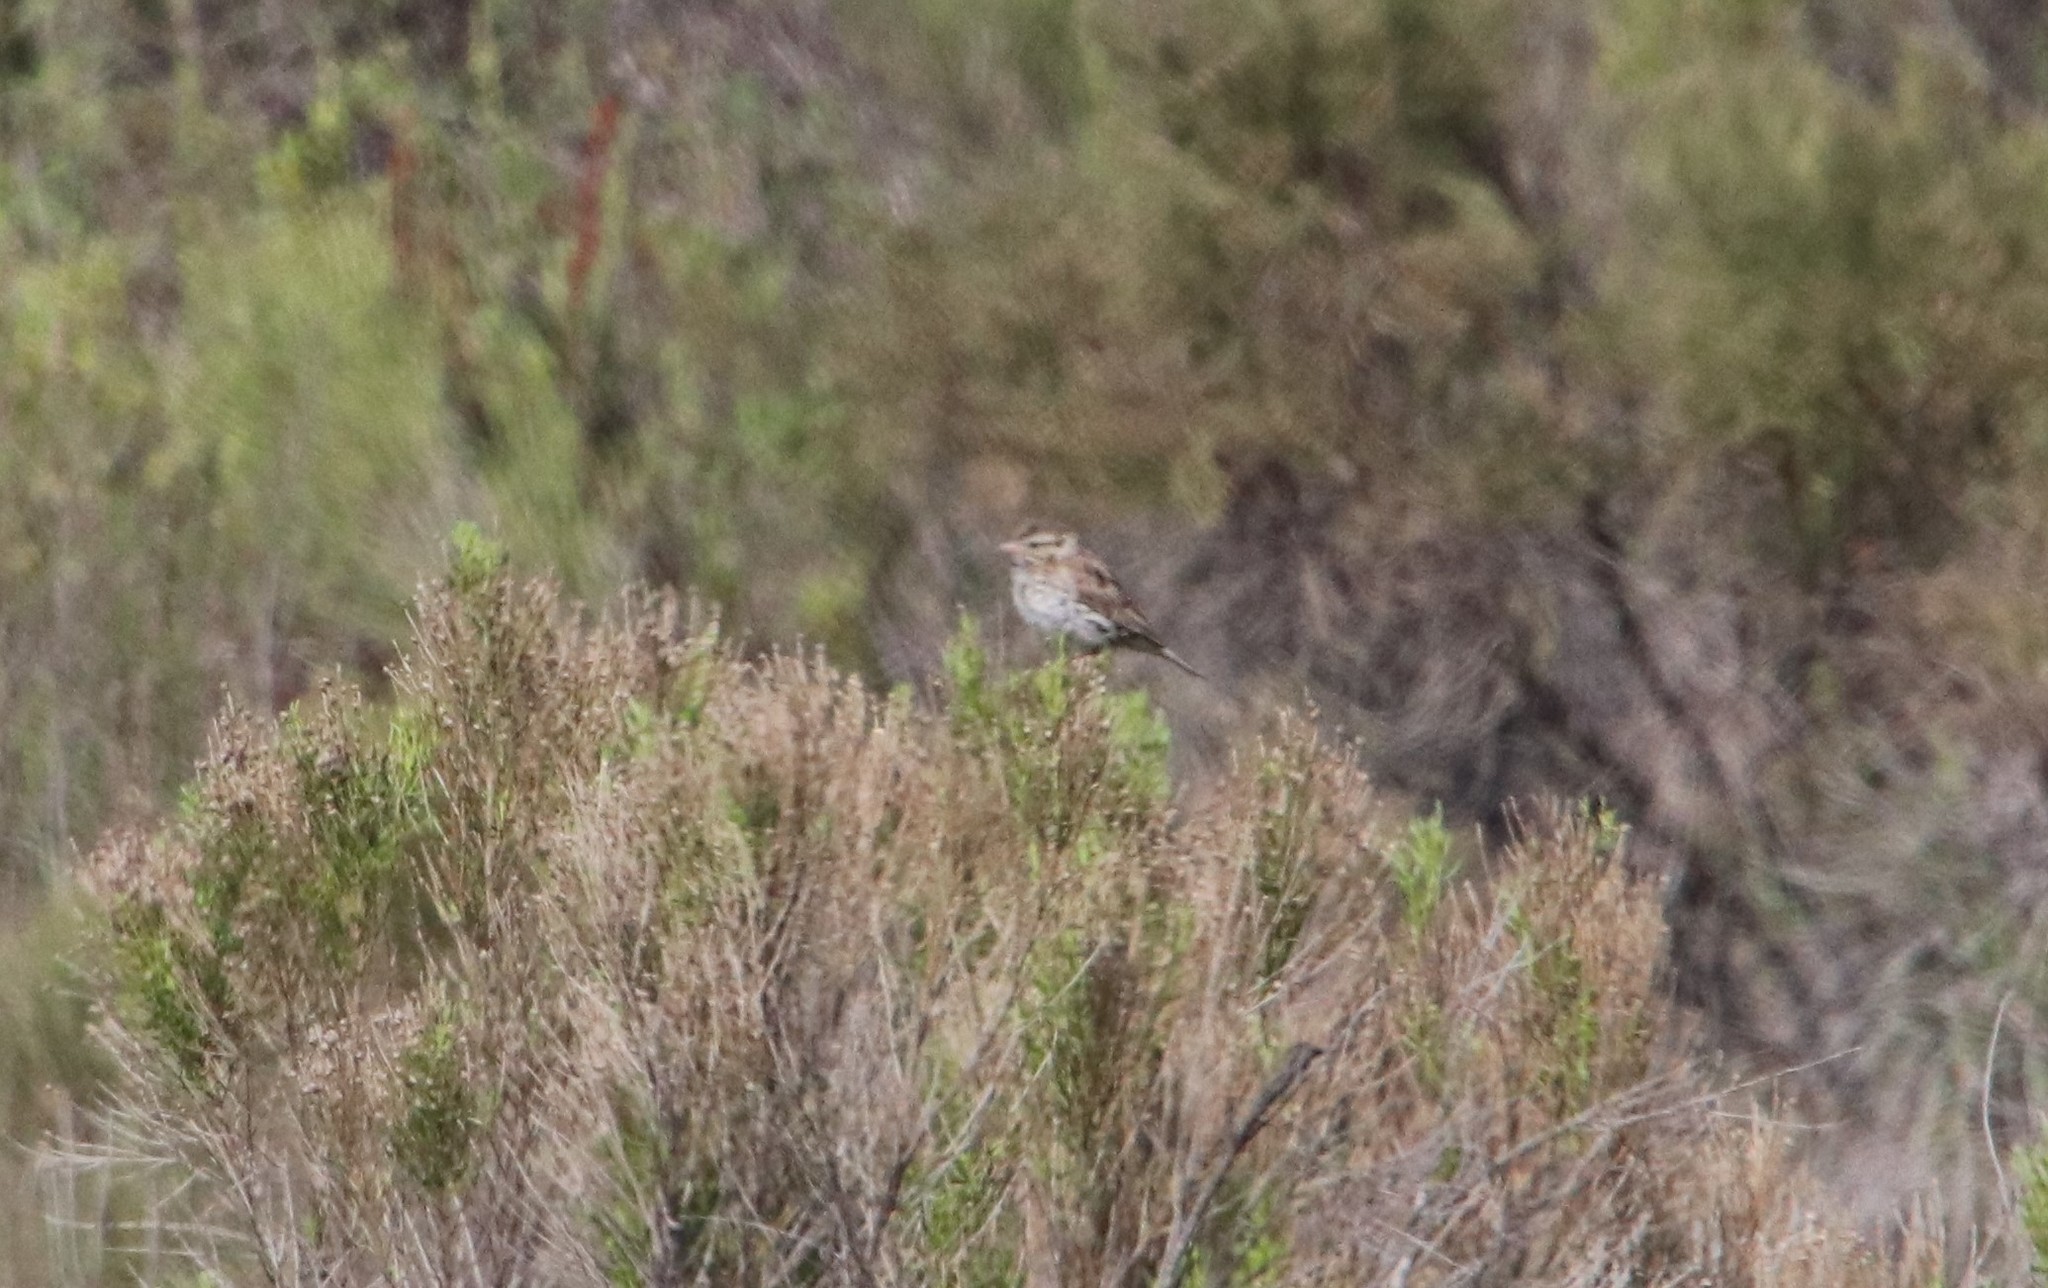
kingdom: Animalia
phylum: Chordata
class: Aves
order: Passeriformes
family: Passerellidae
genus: Passerculus
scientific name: Passerculus sandwichensis
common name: Savannah sparrow
